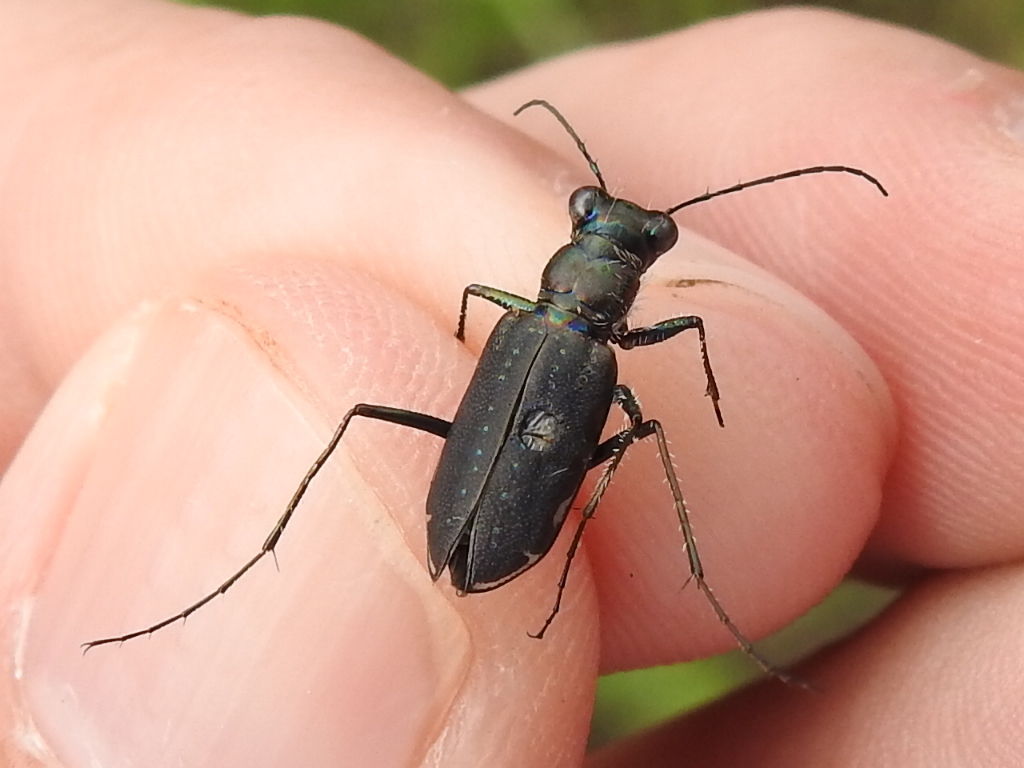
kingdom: Animalia
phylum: Arthropoda
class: Insecta
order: Coleoptera
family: Carabidae
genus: Cicindela
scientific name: Cicindela punctulata
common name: Punctured tiger beetle
